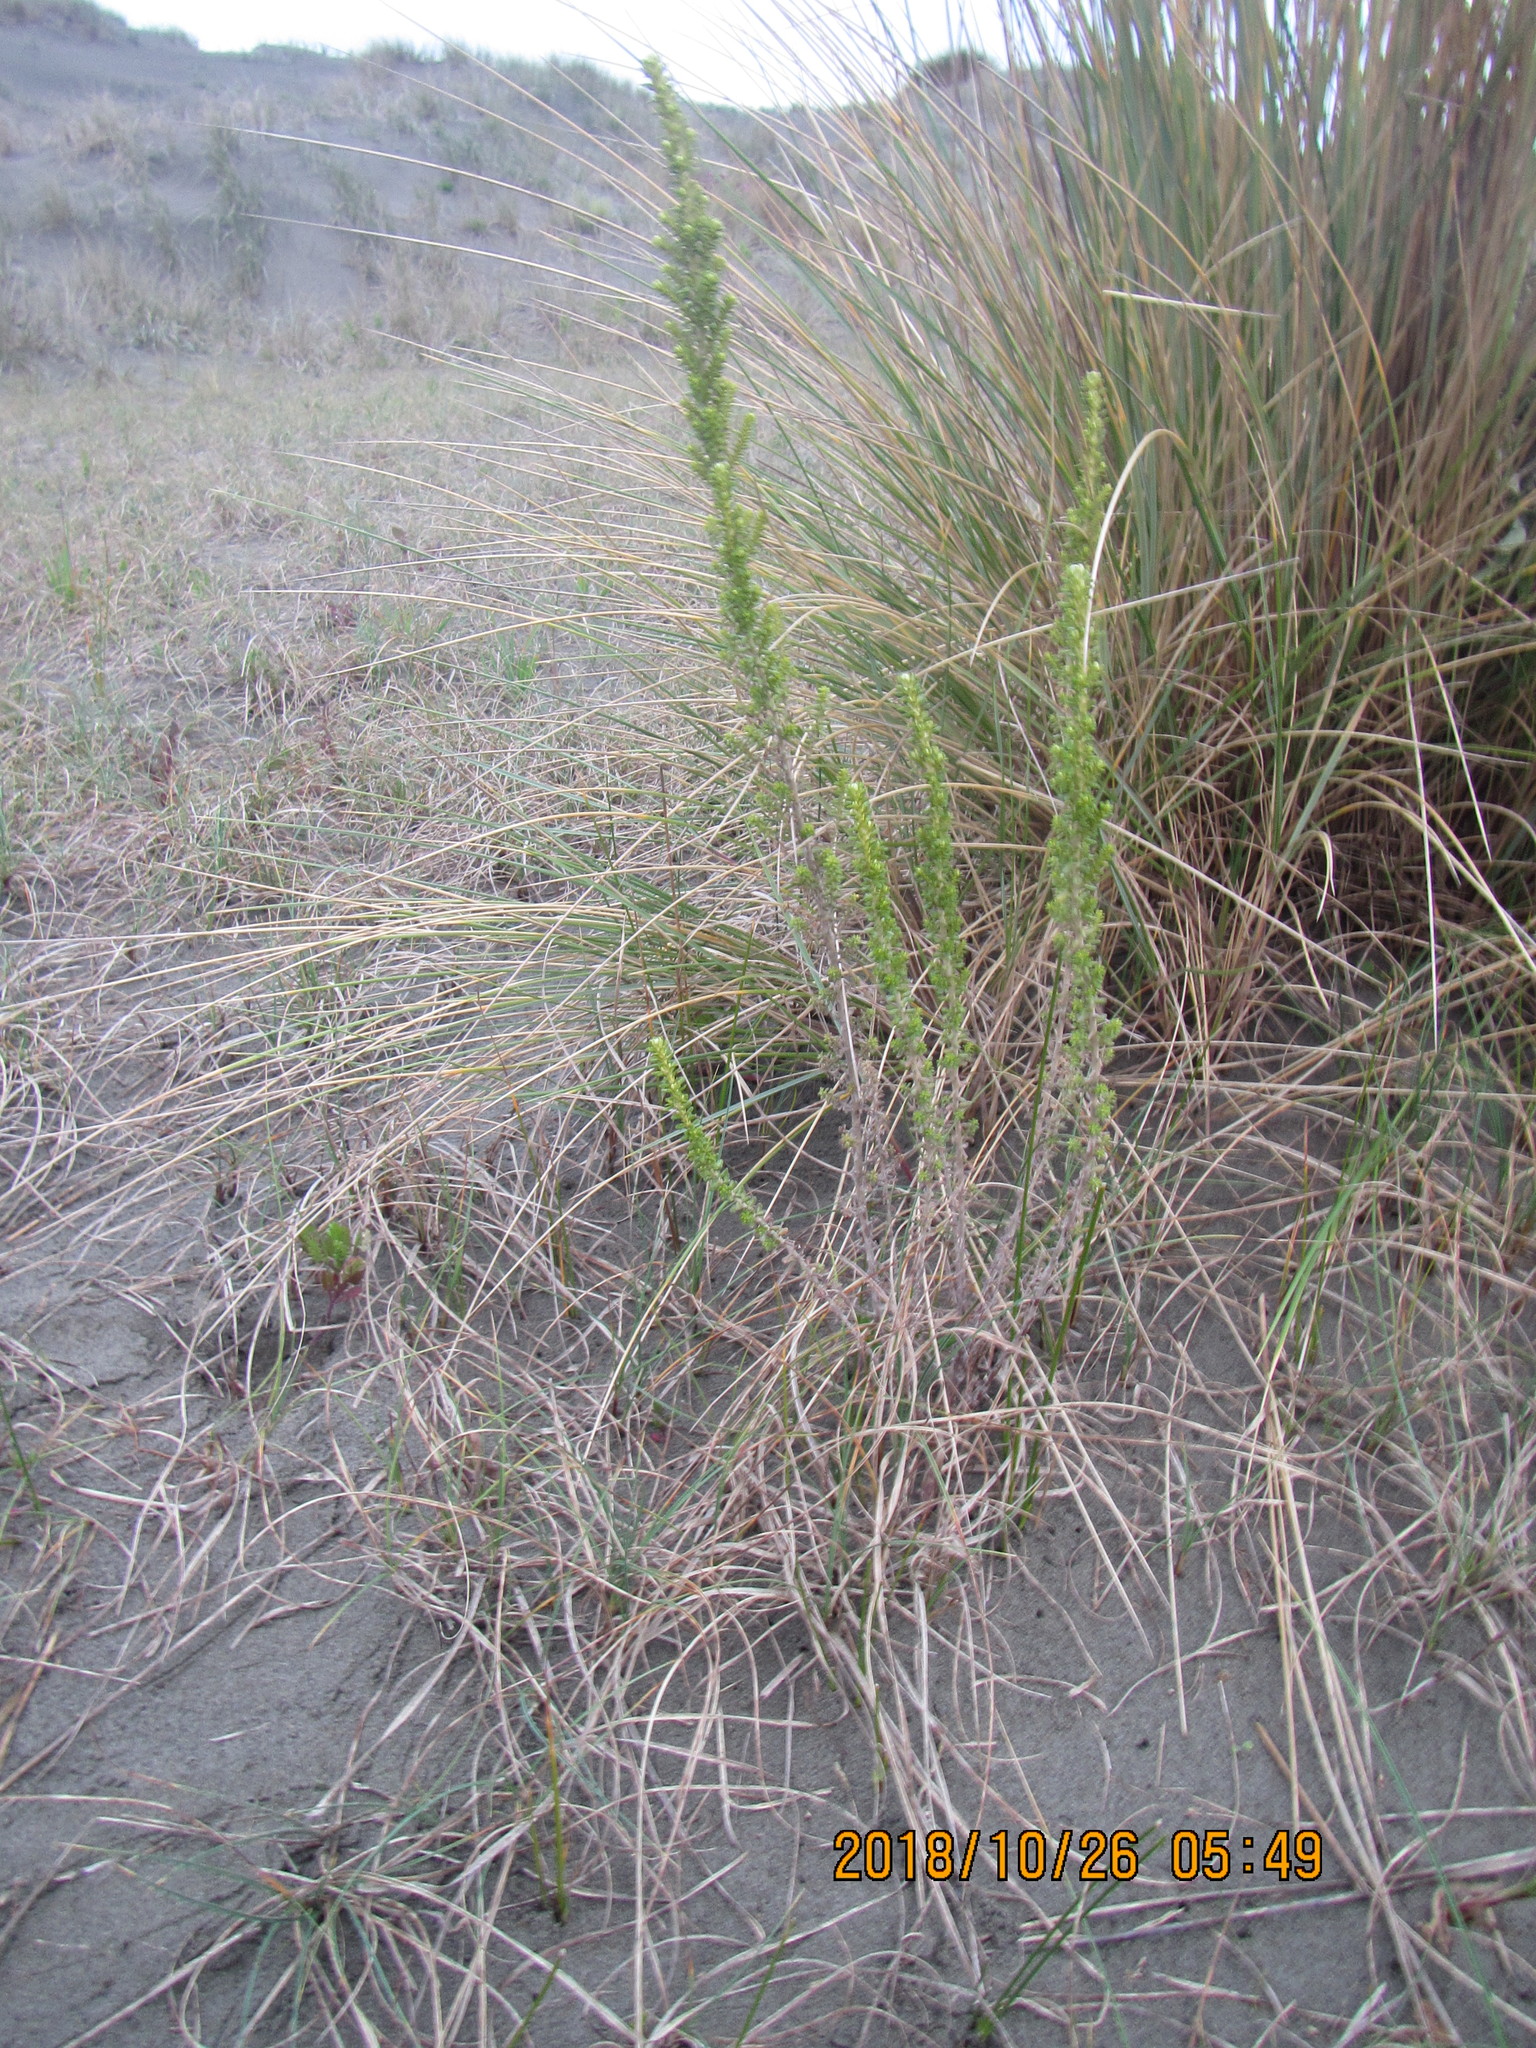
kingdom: Plantae
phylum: Tracheophyta
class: Magnoliopsida
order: Asterales
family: Asteraceae
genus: Ozothamnus
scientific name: Ozothamnus leptophyllus
